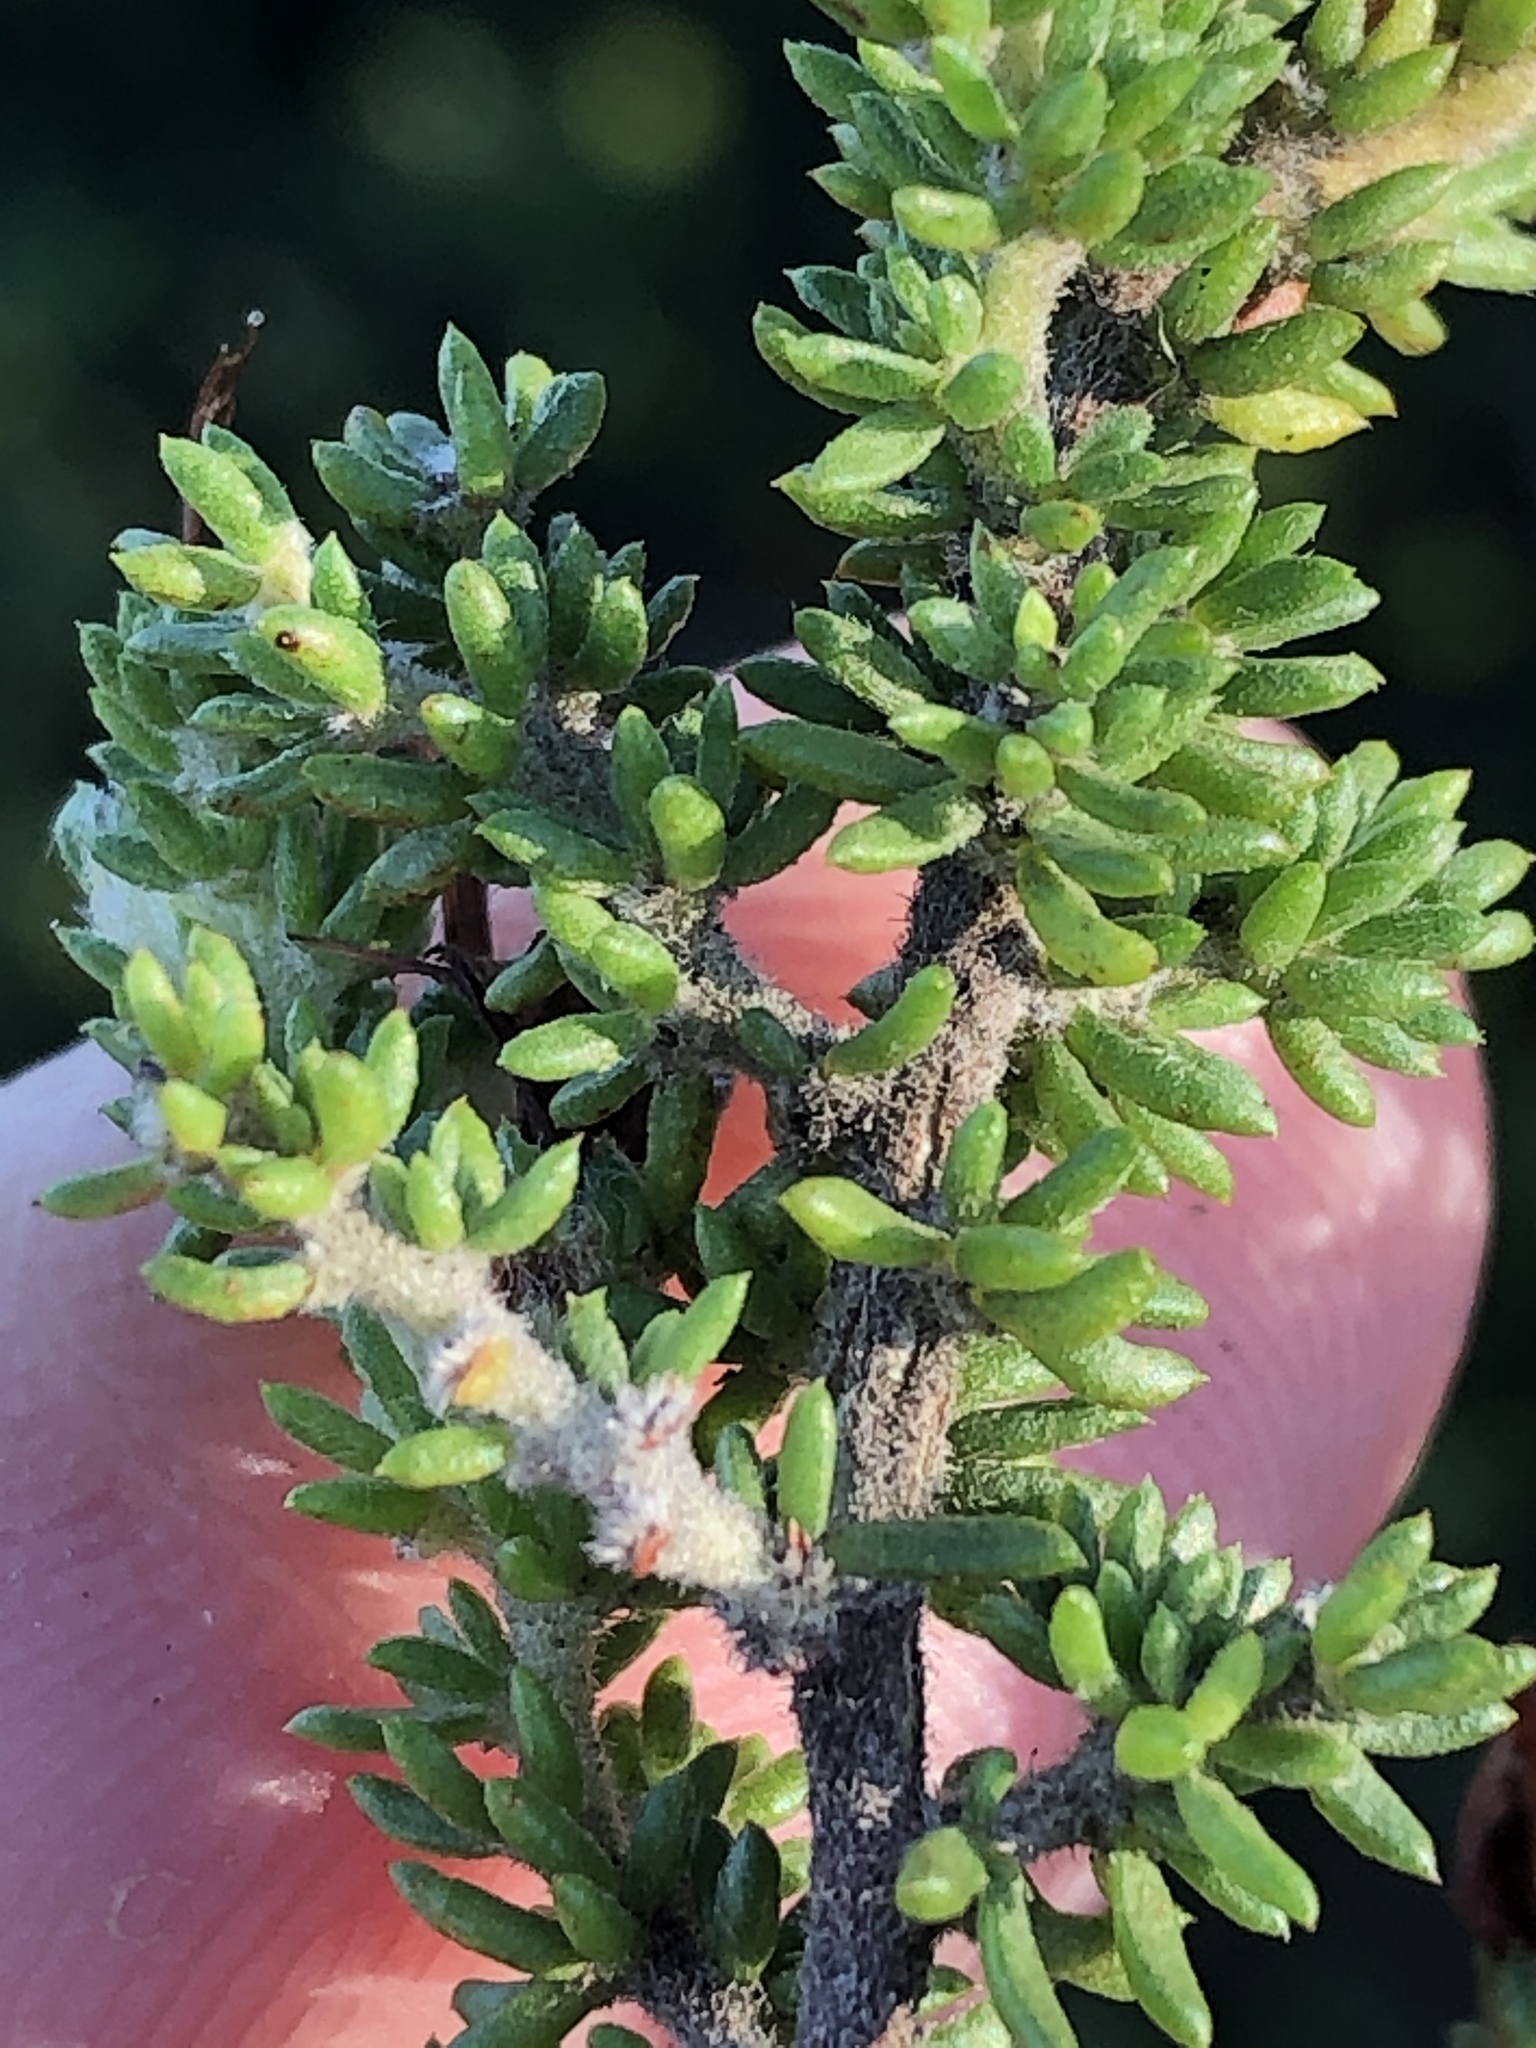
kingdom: Plantae
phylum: Tracheophyta
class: Magnoliopsida
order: Fabales
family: Fabaceae
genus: Aspalathus
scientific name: Aspalathus opaca
